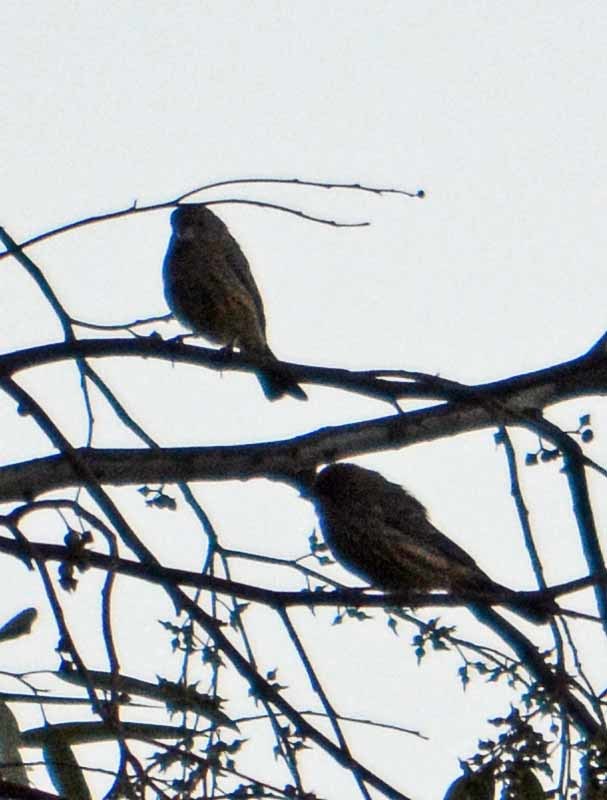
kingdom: Animalia
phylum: Chordata
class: Aves
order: Passeriformes
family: Fringillidae
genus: Haemorhous
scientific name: Haemorhous mexicanus
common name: House finch
